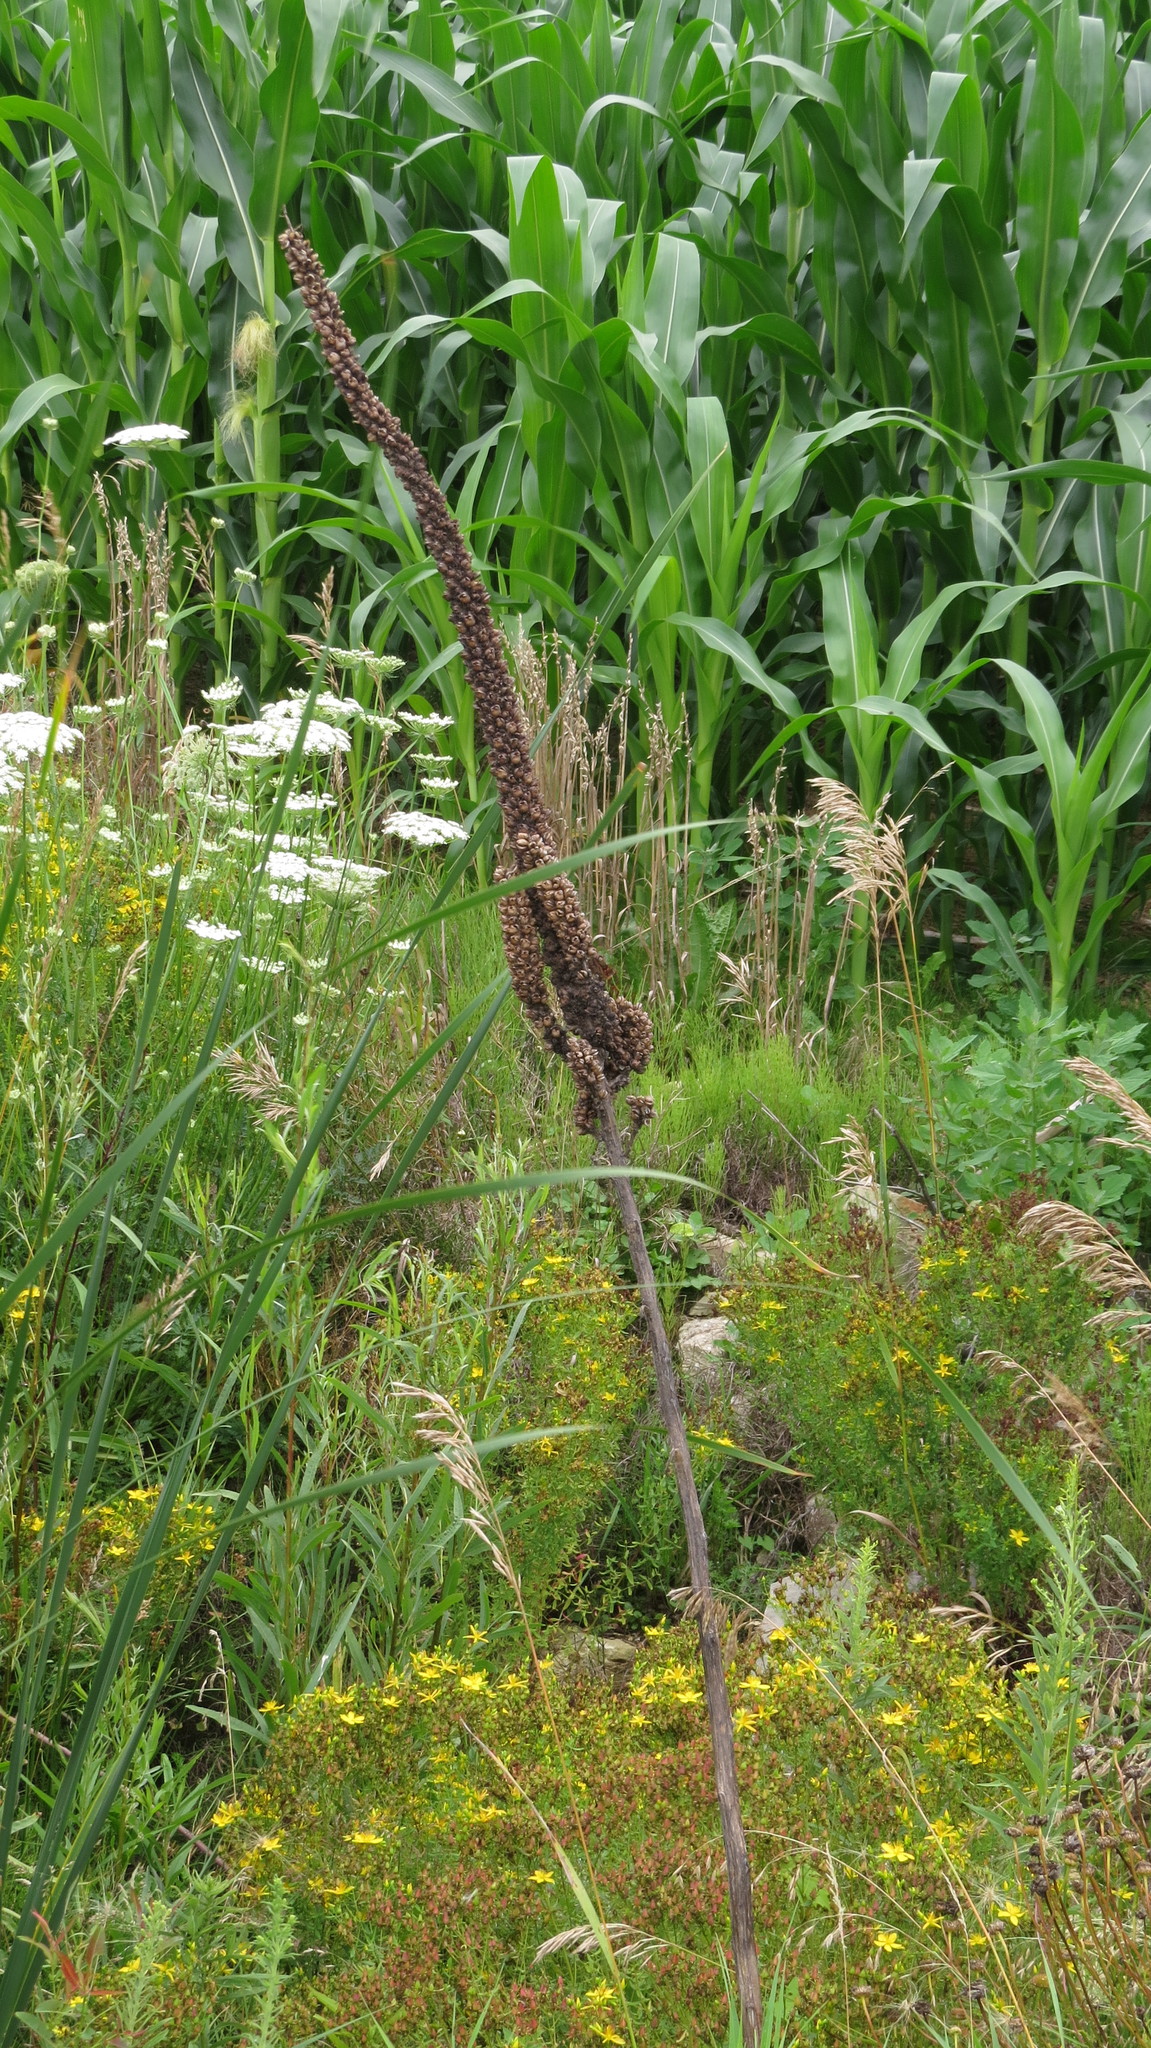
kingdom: Plantae
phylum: Tracheophyta
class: Magnoliopsida
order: Lamiales
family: Scrophulariaceae
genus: Verbascum
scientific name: Verbascum thapsus
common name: Common mullein
